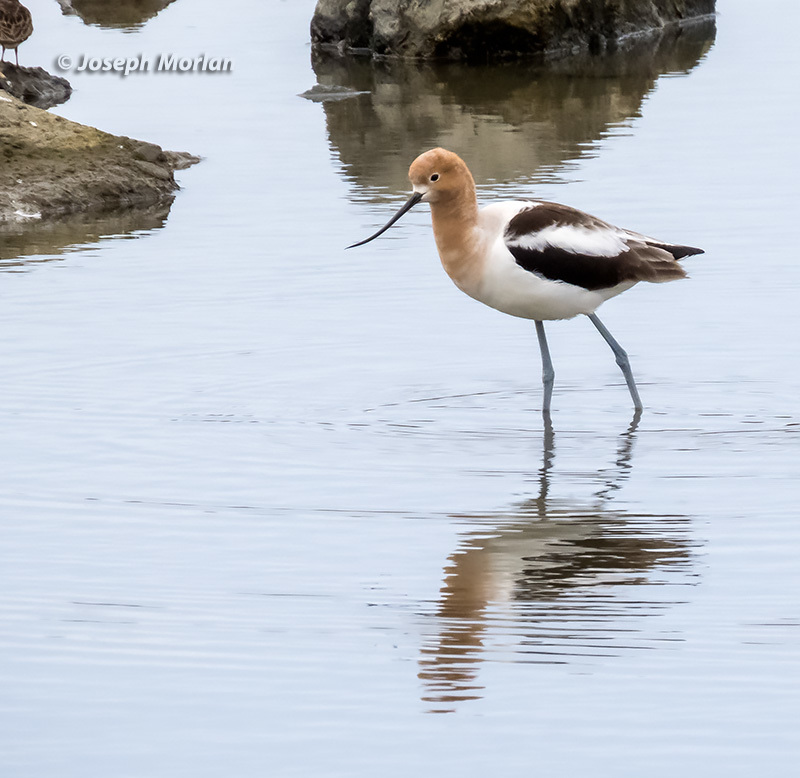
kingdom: Animalia
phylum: Chordata
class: Aves
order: Charadriiformes
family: Recurvirostridae
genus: Recurvirostra
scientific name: Recurvirostra americana
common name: American avocet
